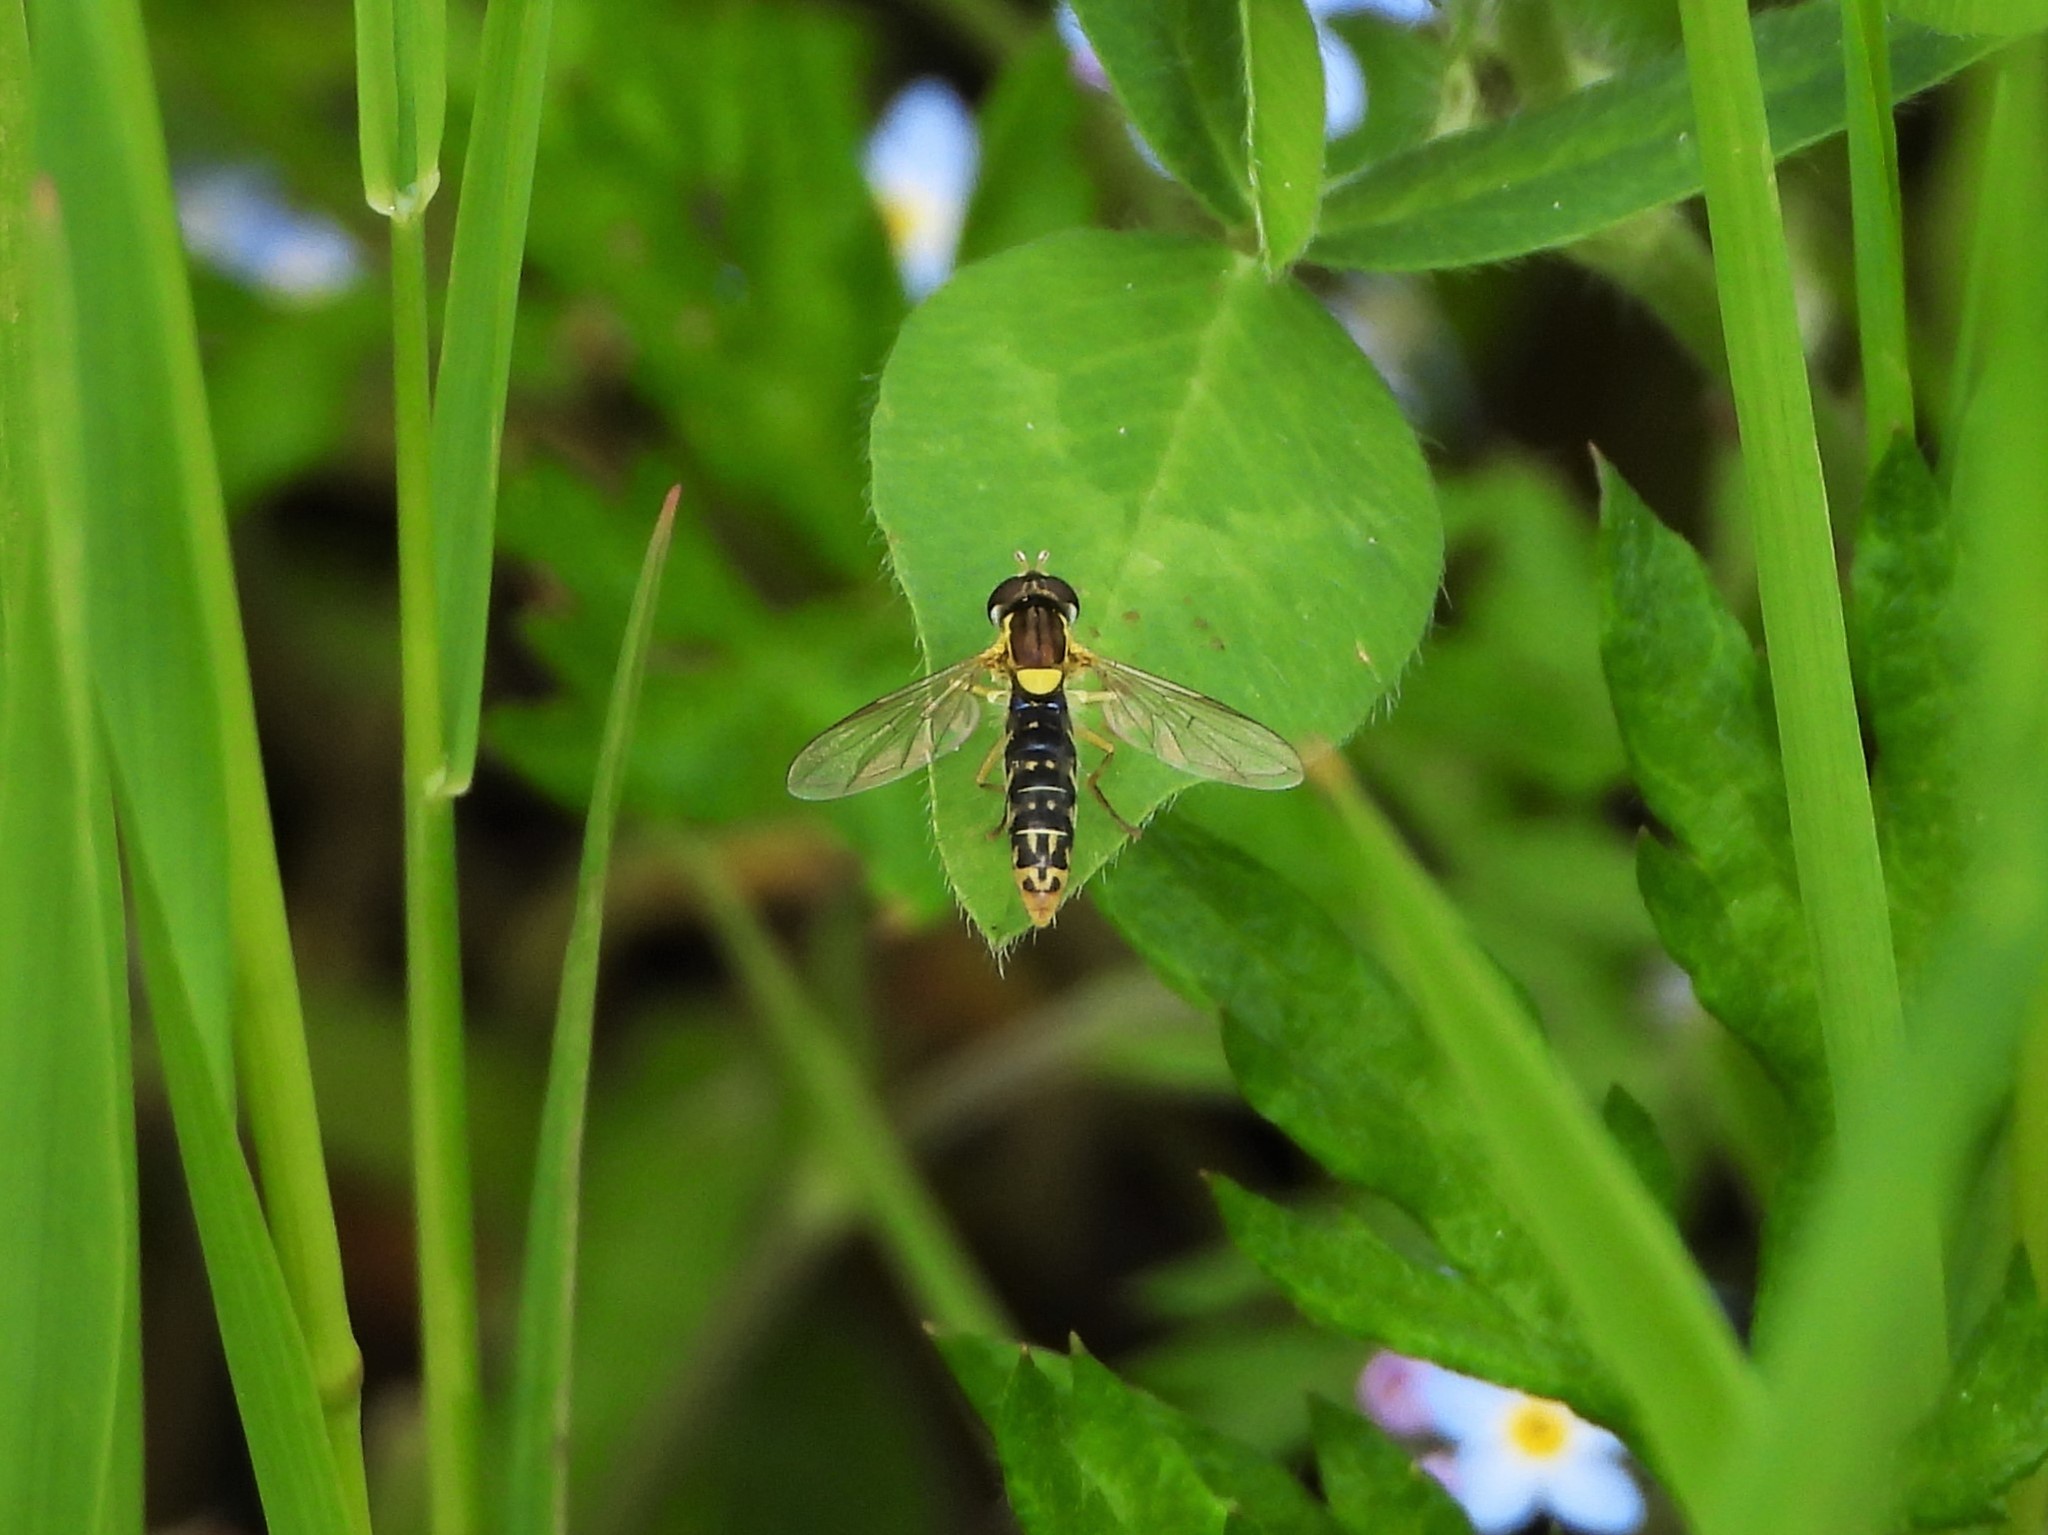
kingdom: Animalia
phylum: Arthropoda
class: Insecta
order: Diptera
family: Syrphidae
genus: Sphaerophoria
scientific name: Sphaerophoria
